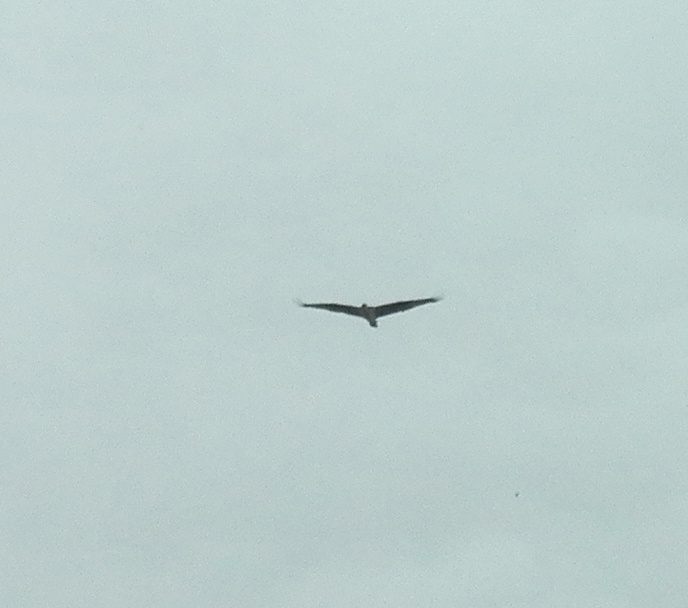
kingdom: Animalia
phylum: Chordata
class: Aves
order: Accipitriformes
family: Pandionidae
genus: Pandion
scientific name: Pandion haliaetus
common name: Osprey
